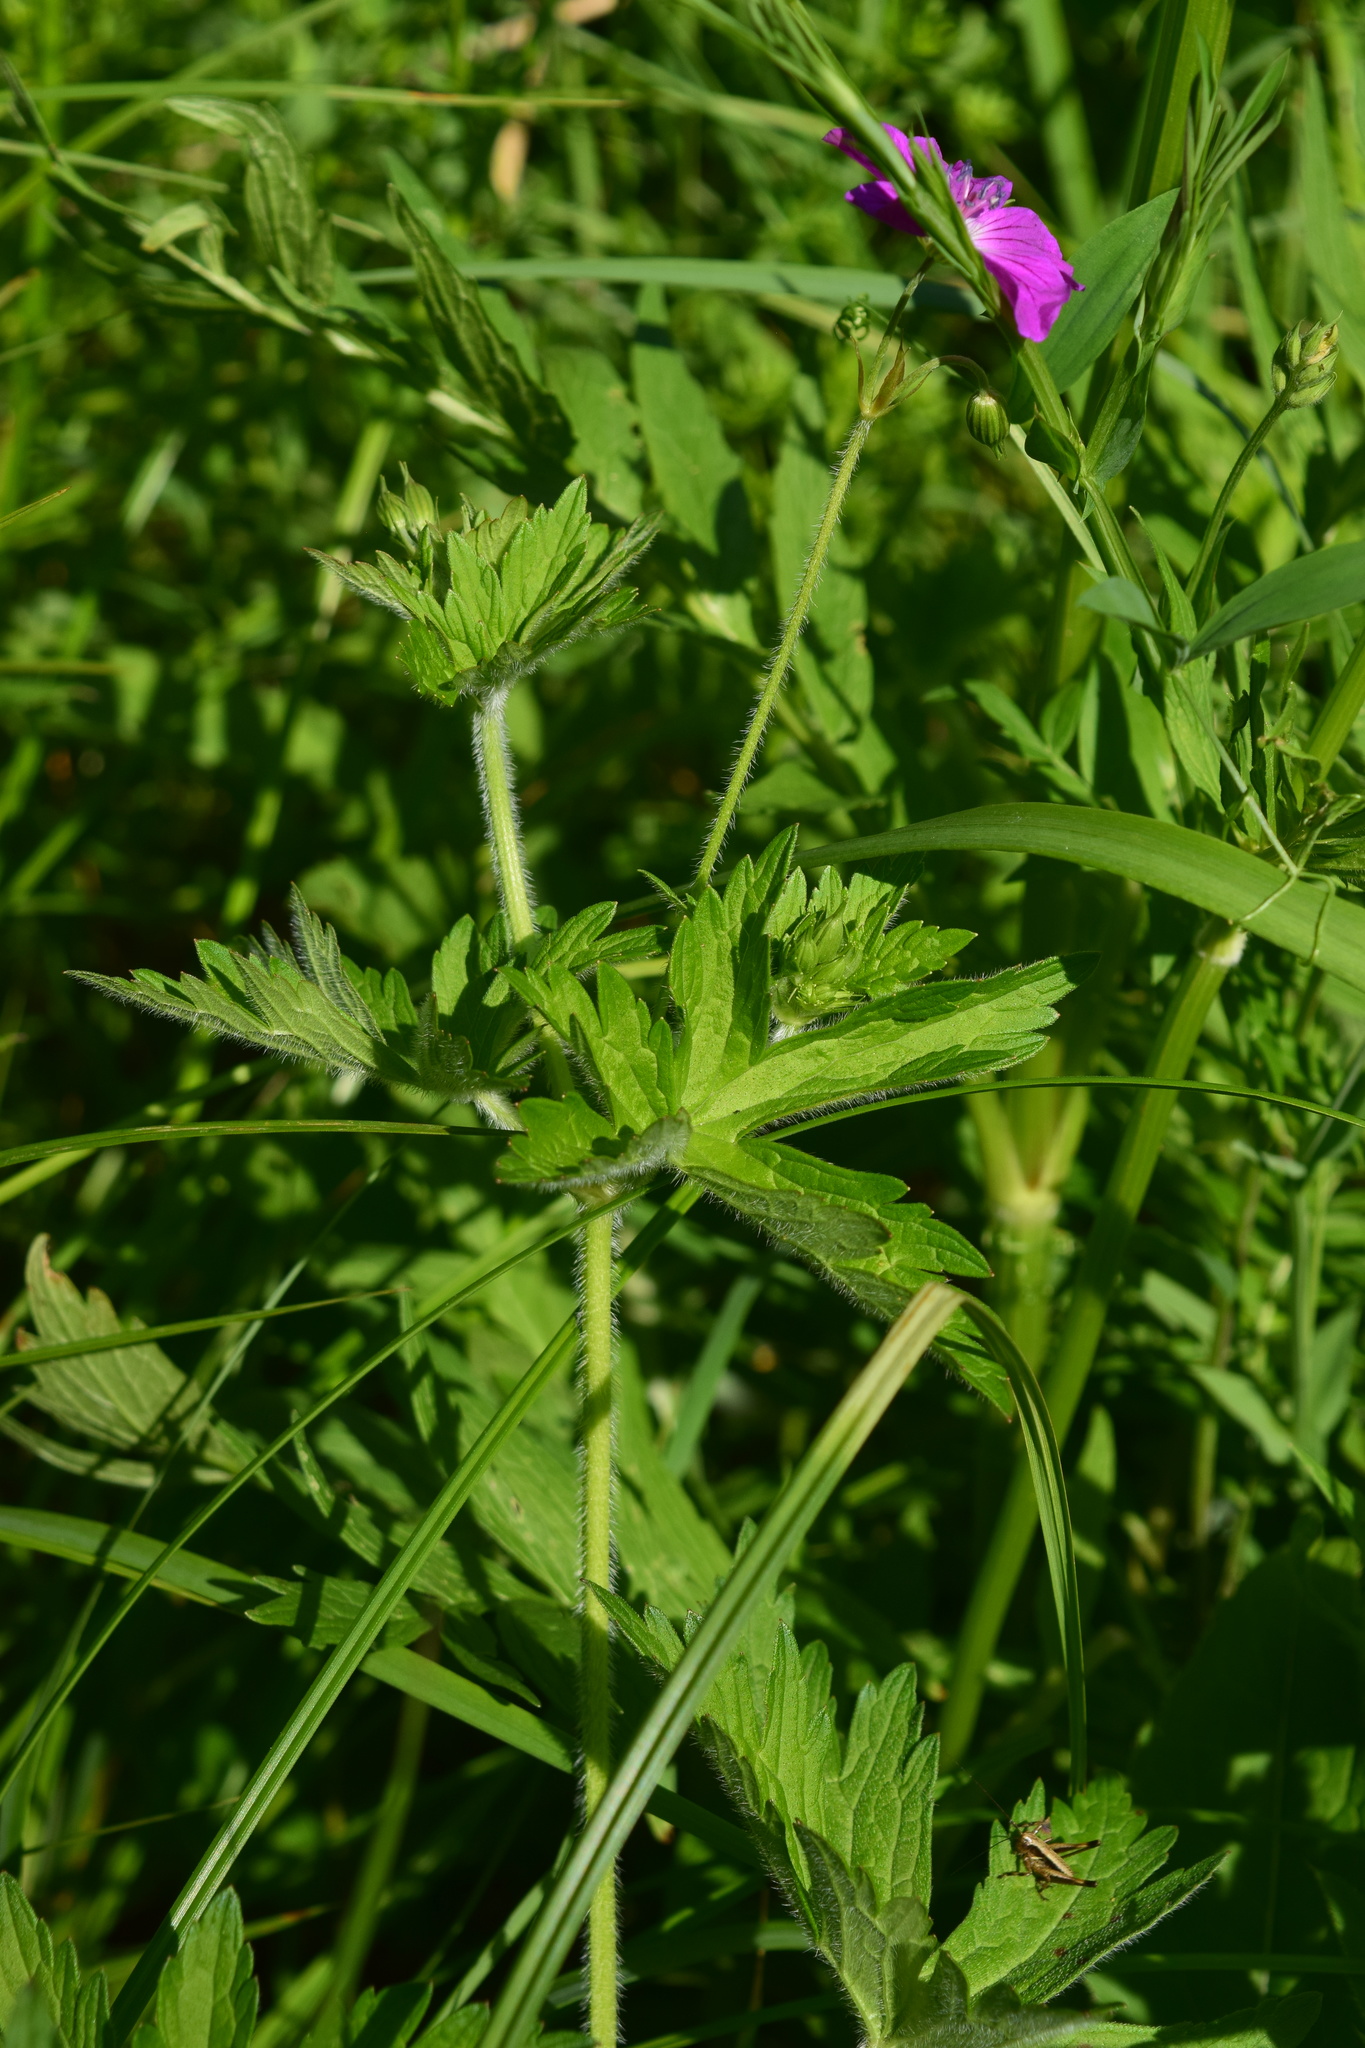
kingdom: Plantae
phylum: Tracheophyta
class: Magnoliopsida
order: Geraniales
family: Geraniaceae
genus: Geranium
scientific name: Geranium palustre
